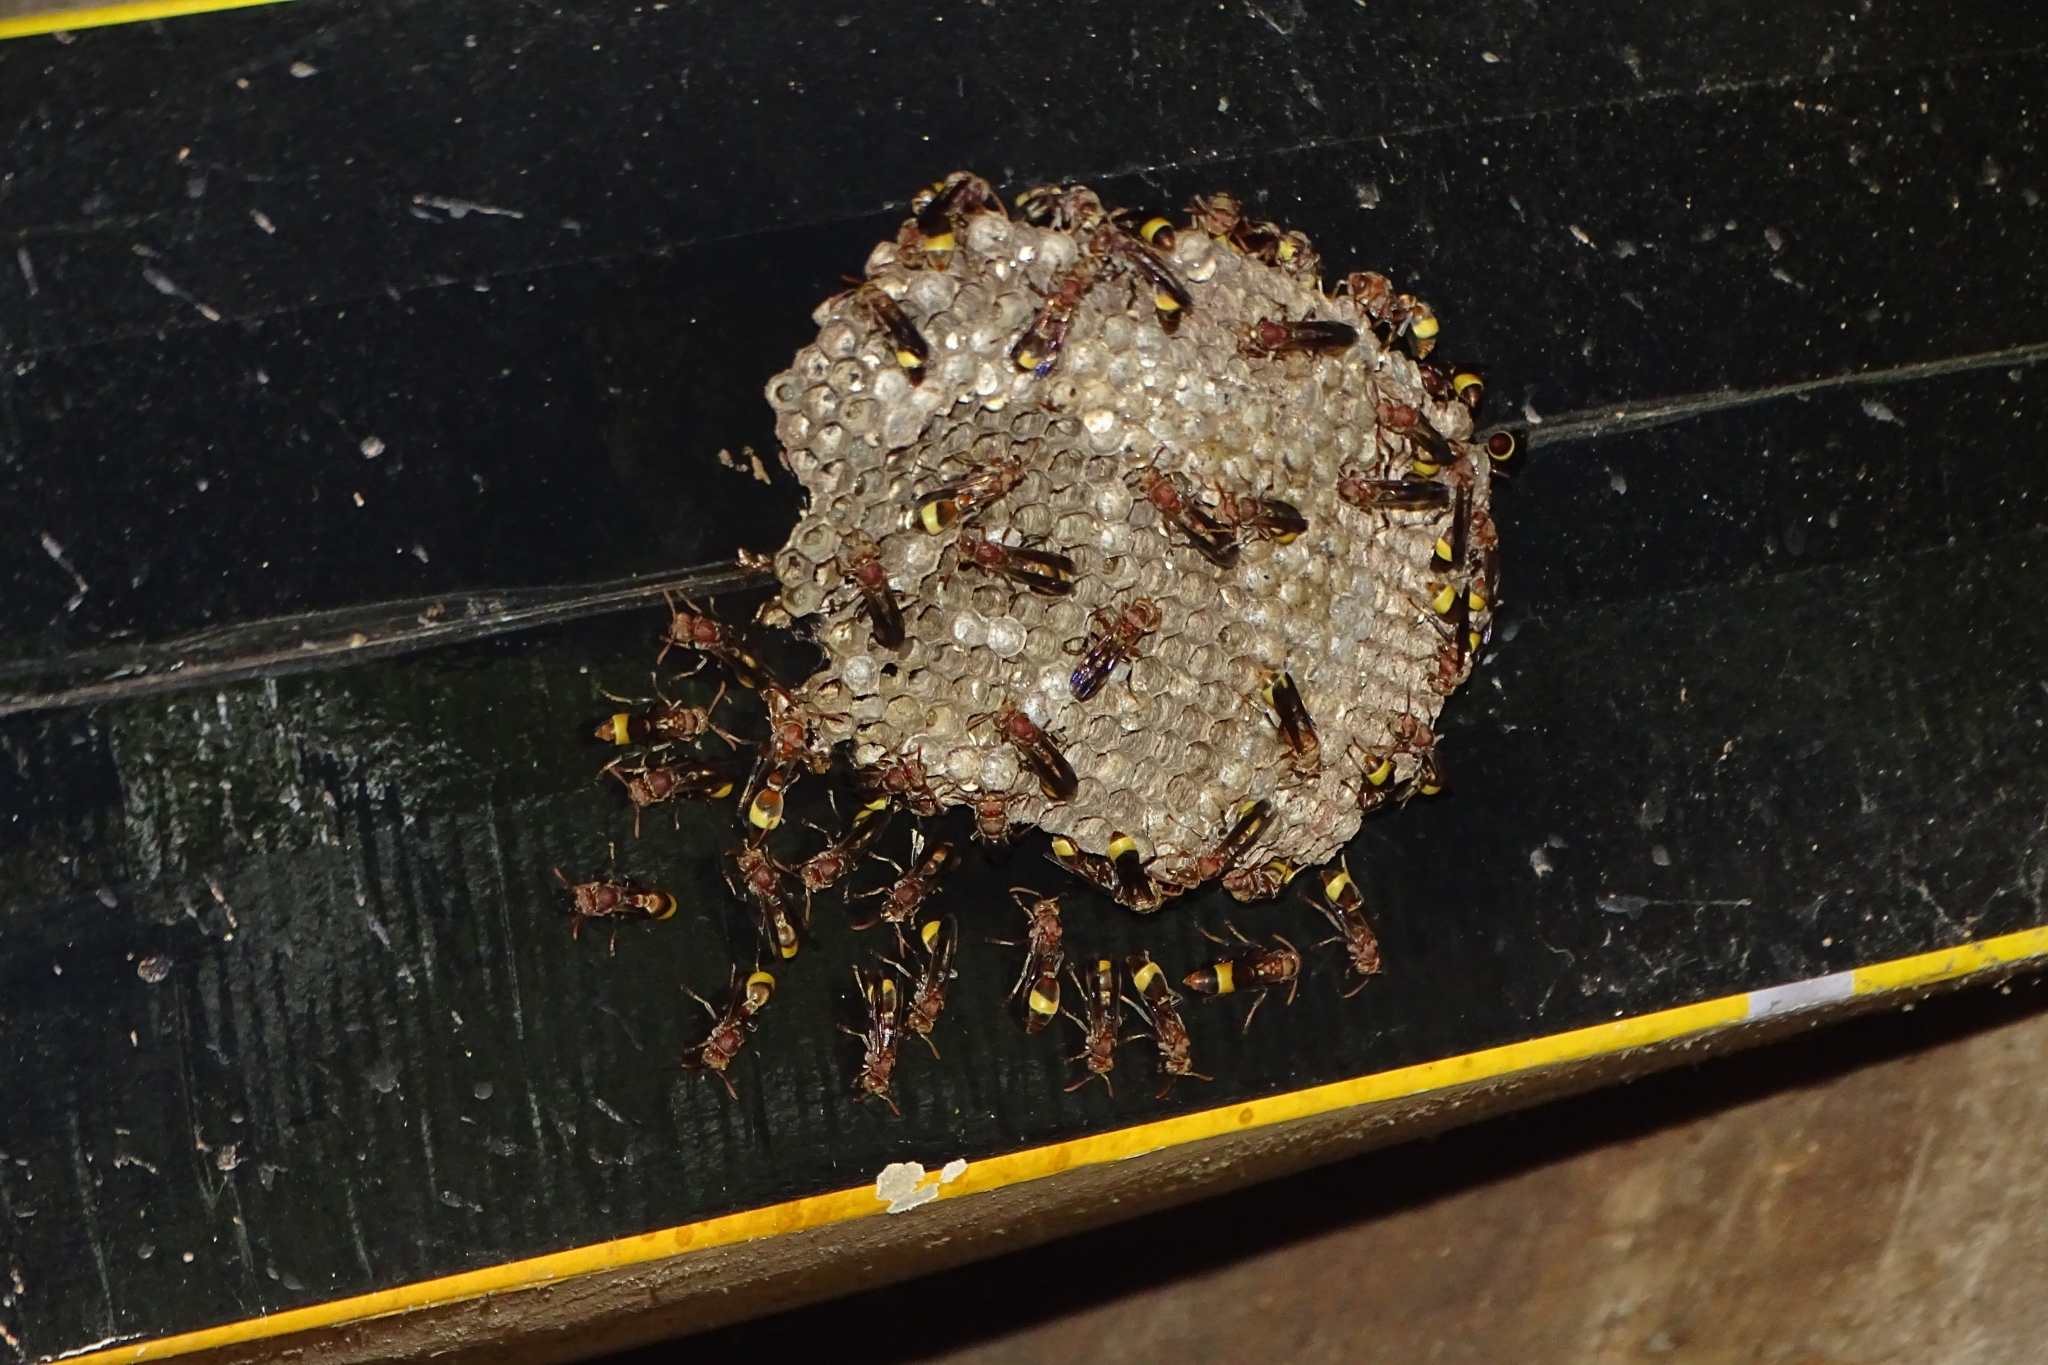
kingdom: Animalia
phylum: Arthropoda
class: Insecta
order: Hymenoptera
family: Vespidae
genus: Ropalidia
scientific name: Ropalidia
